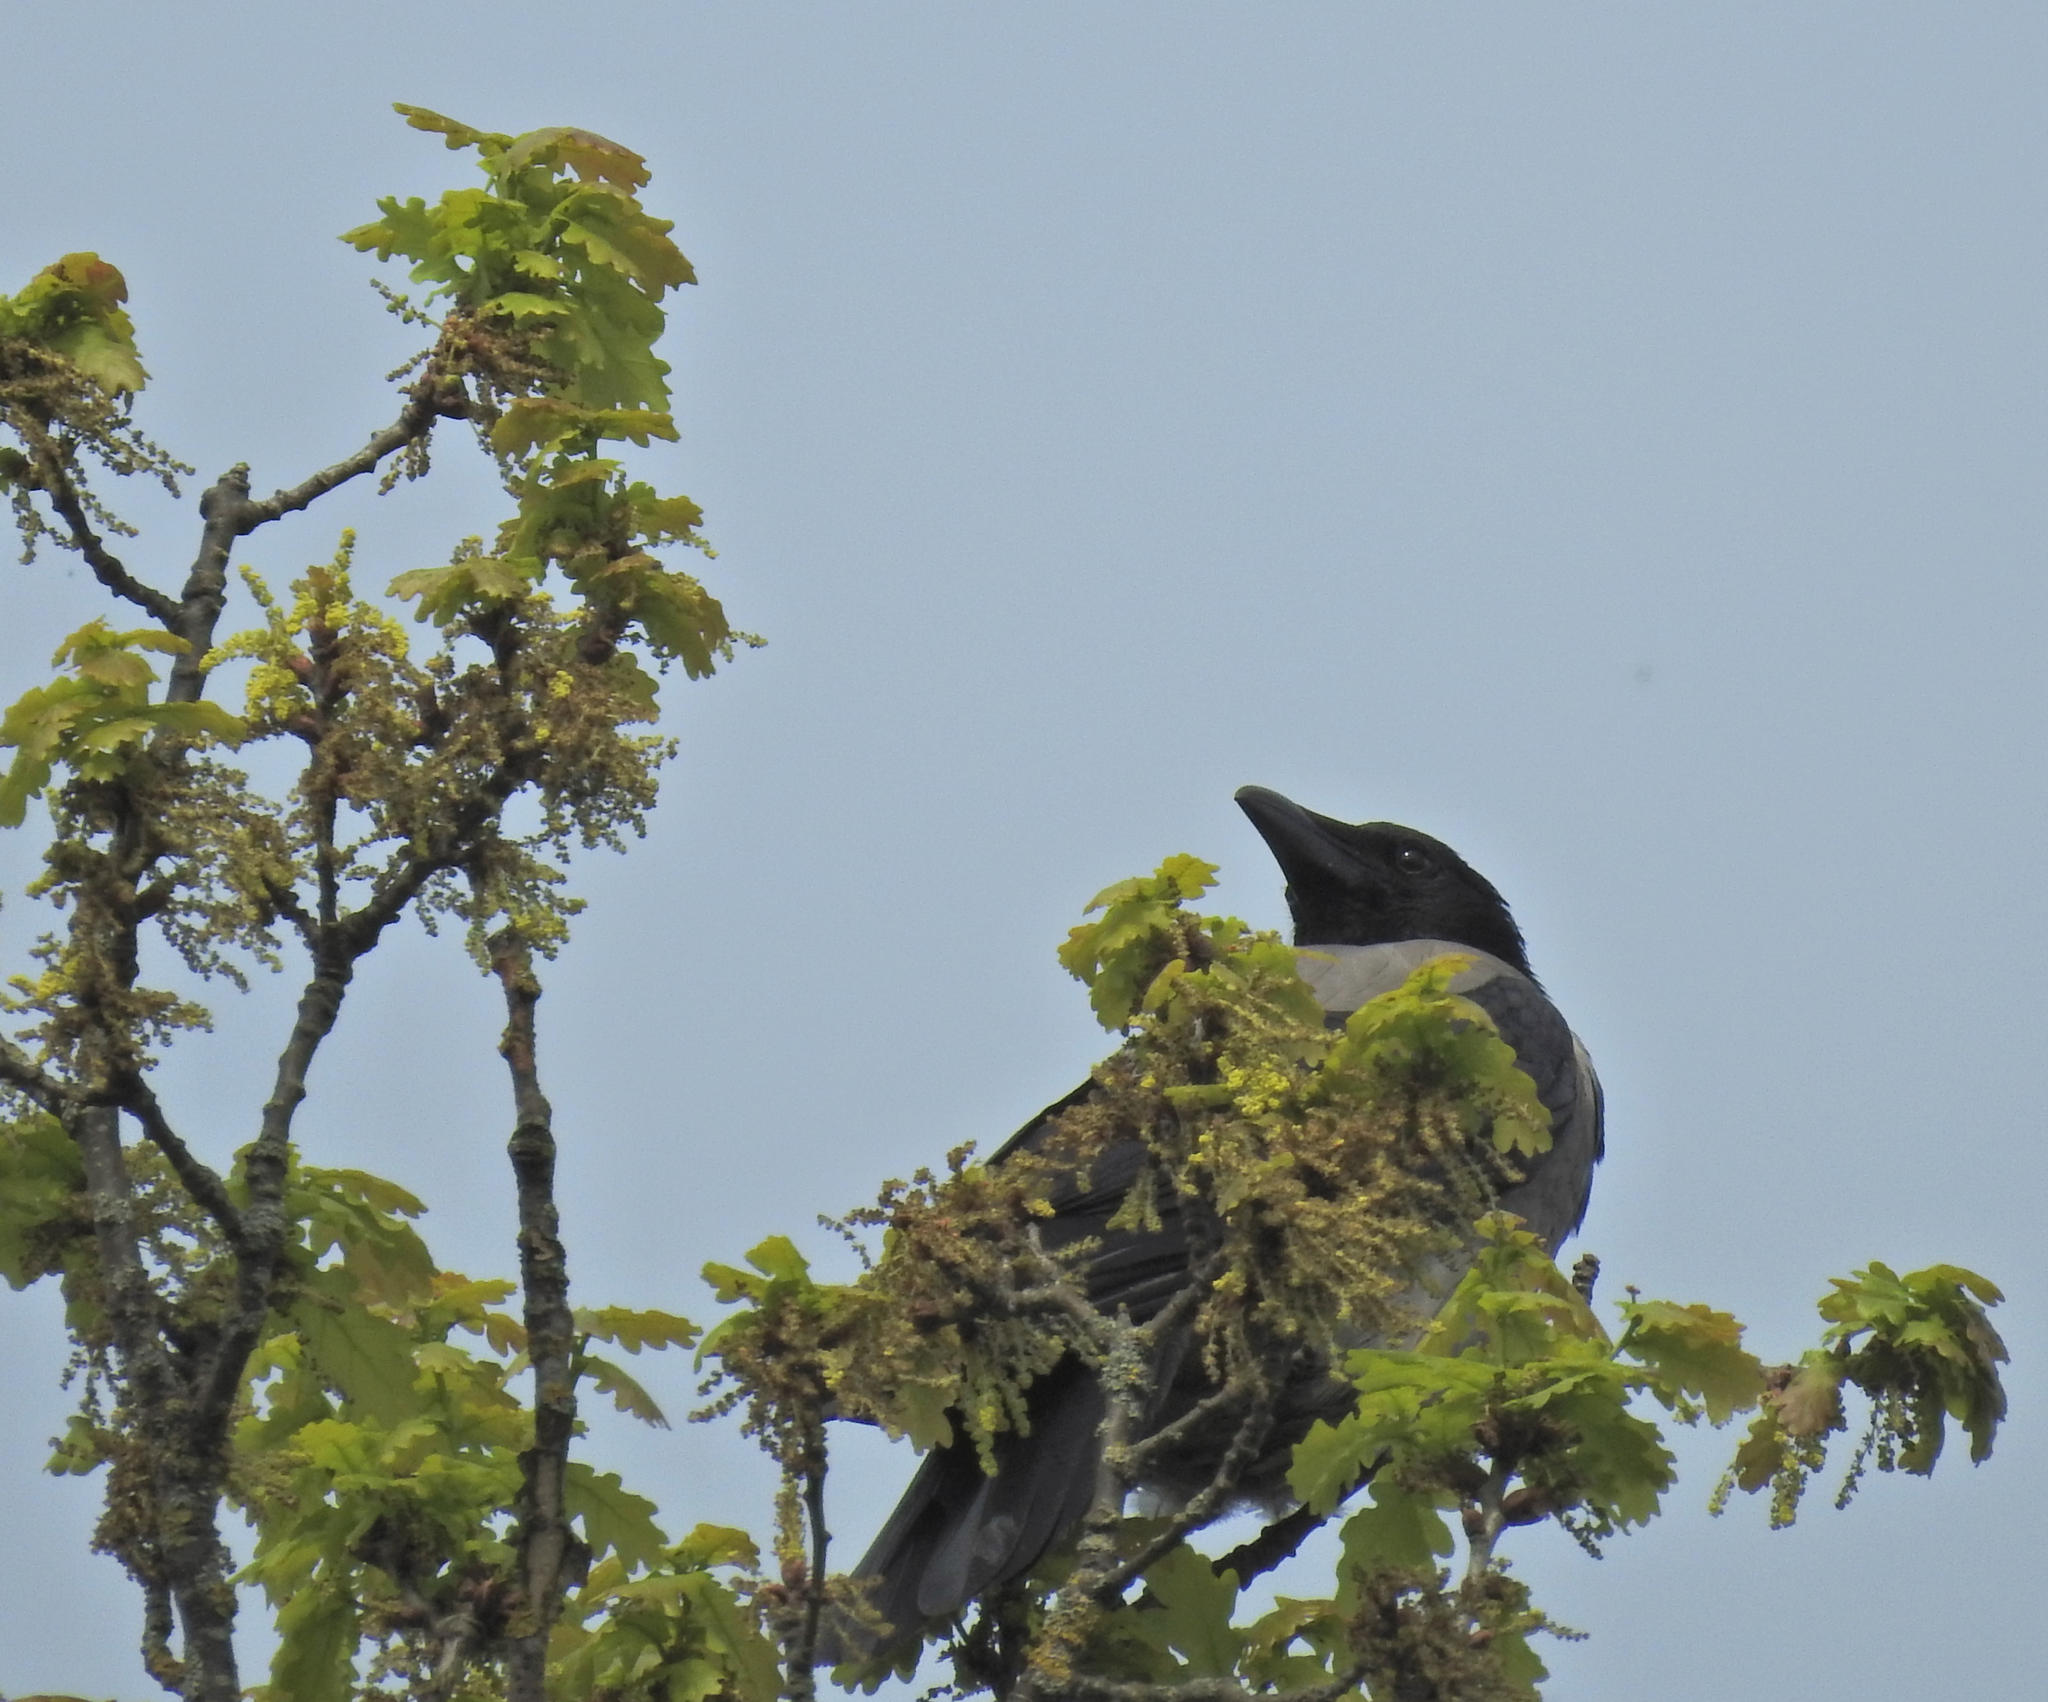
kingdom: Animalia
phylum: Chordata
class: Aves
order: Passeriformes
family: Corvidae
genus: Corvus
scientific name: Corvus cornix
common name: Hooded crow
